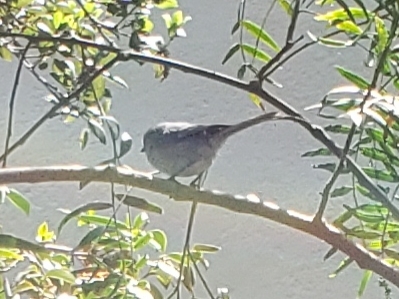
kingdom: Animalia
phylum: Chordata
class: Aves
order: Passeriformes
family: Aegithalidae
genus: Psaltriparus
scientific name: Psaltriparus minimus
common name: American bushtit
